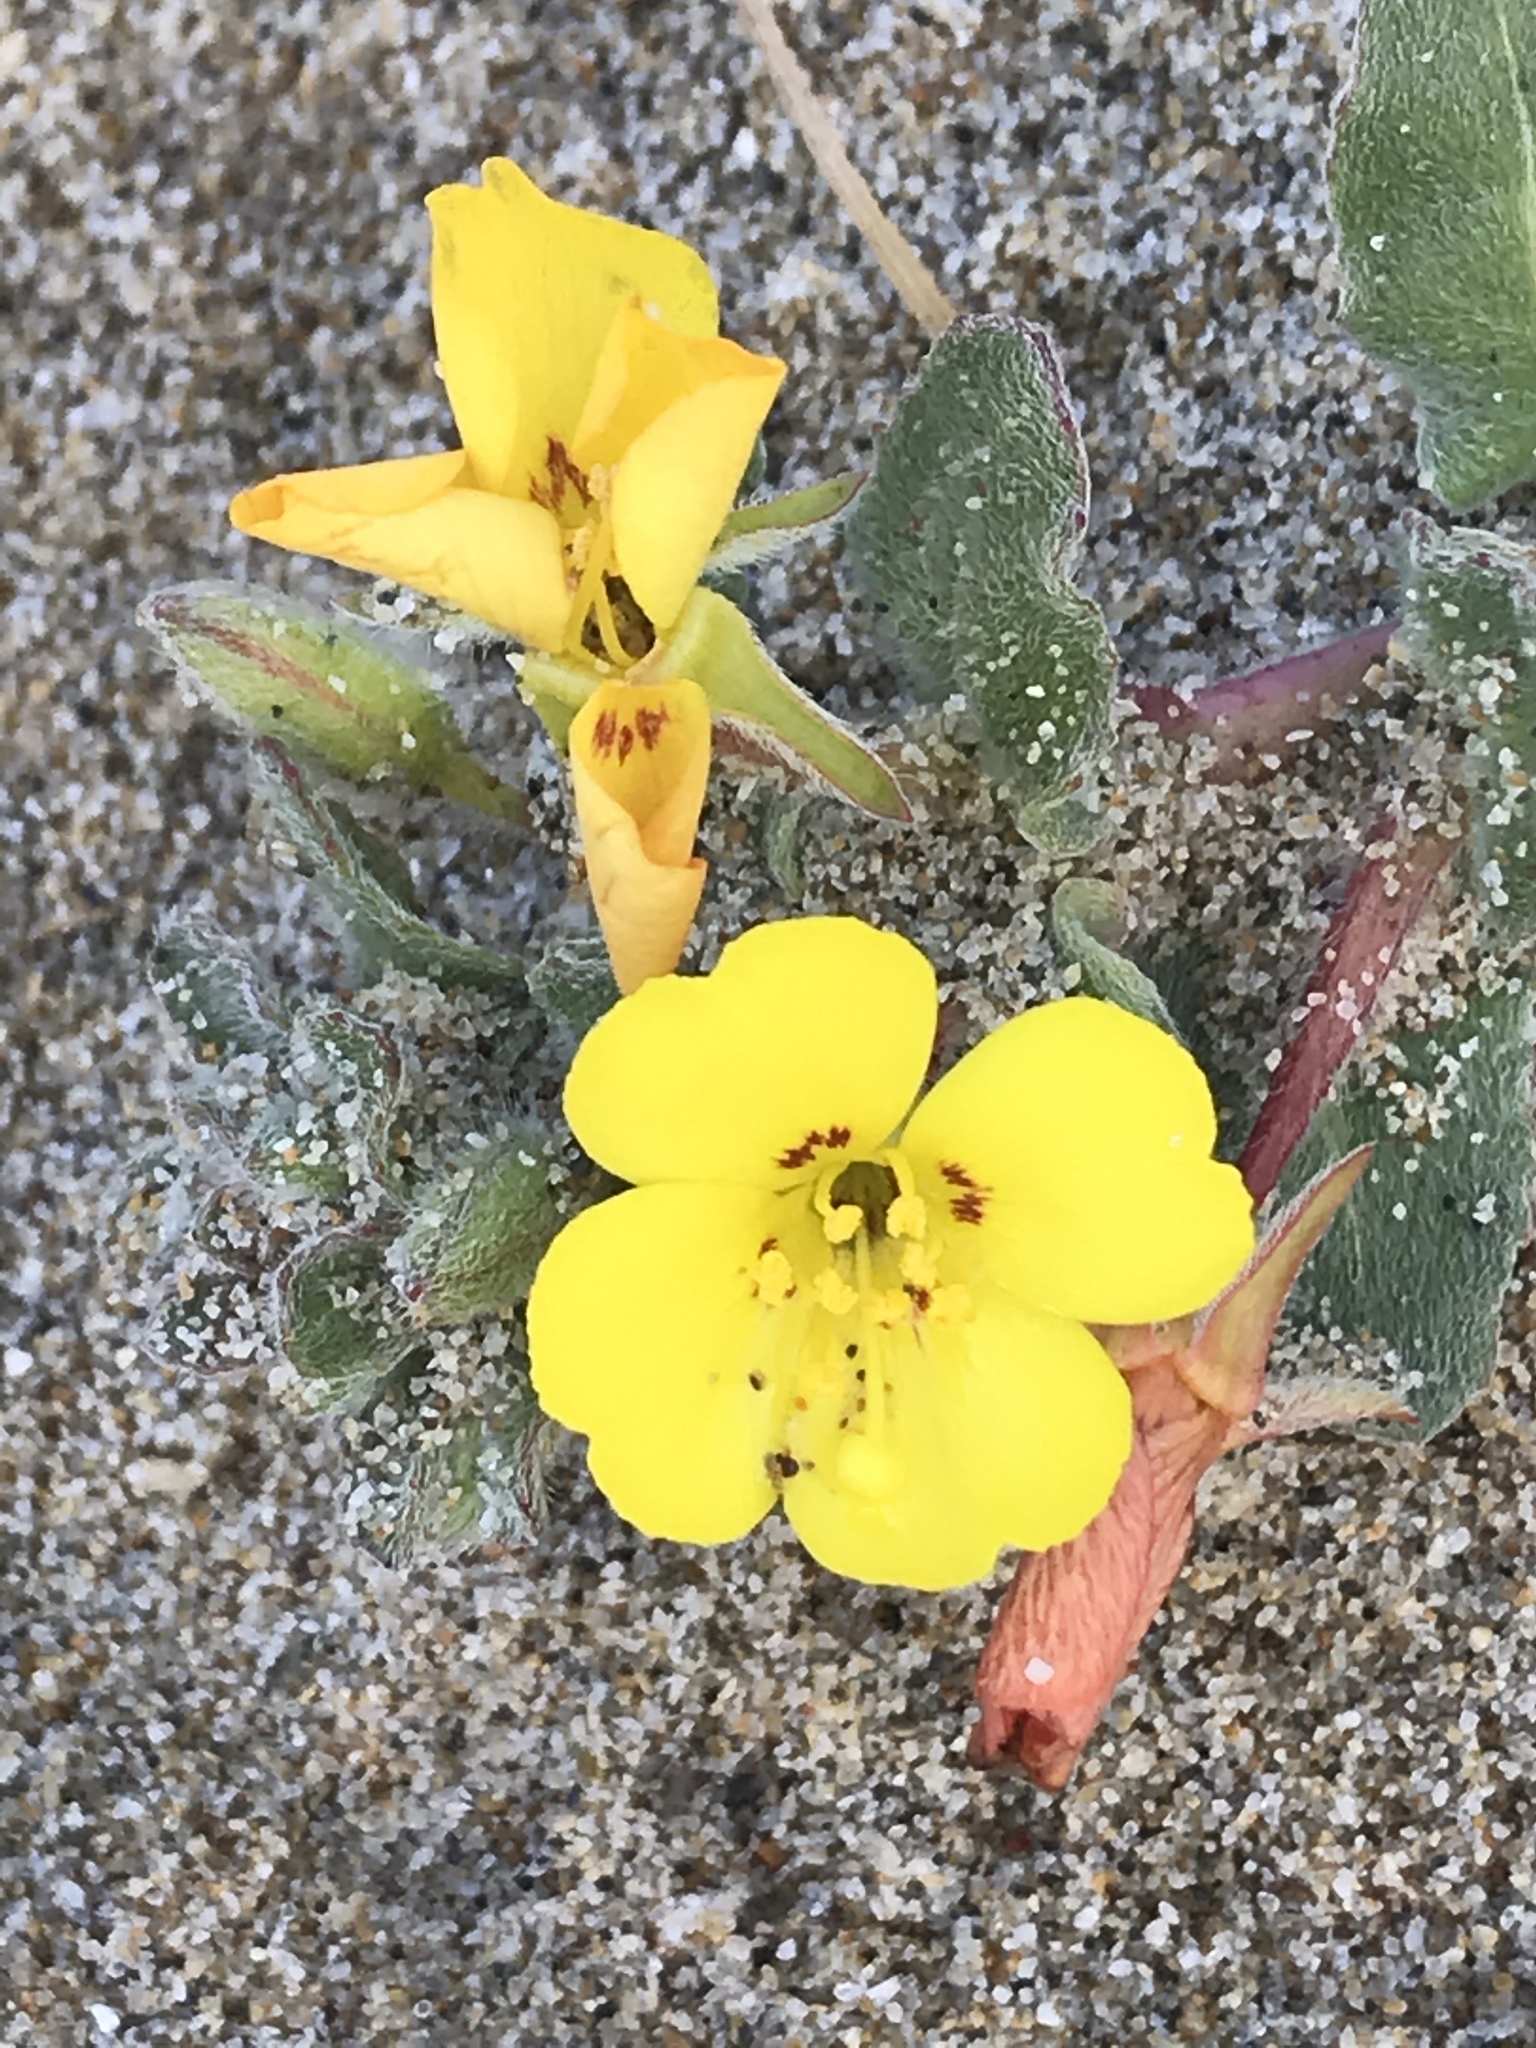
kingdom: Plantae
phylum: Tracheophyta
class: Magnoliopsida
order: Myrtales
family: Onagraceae
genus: Camissoniopsis
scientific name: Camissoniopsis cheiranthifolia
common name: Beach suncup
